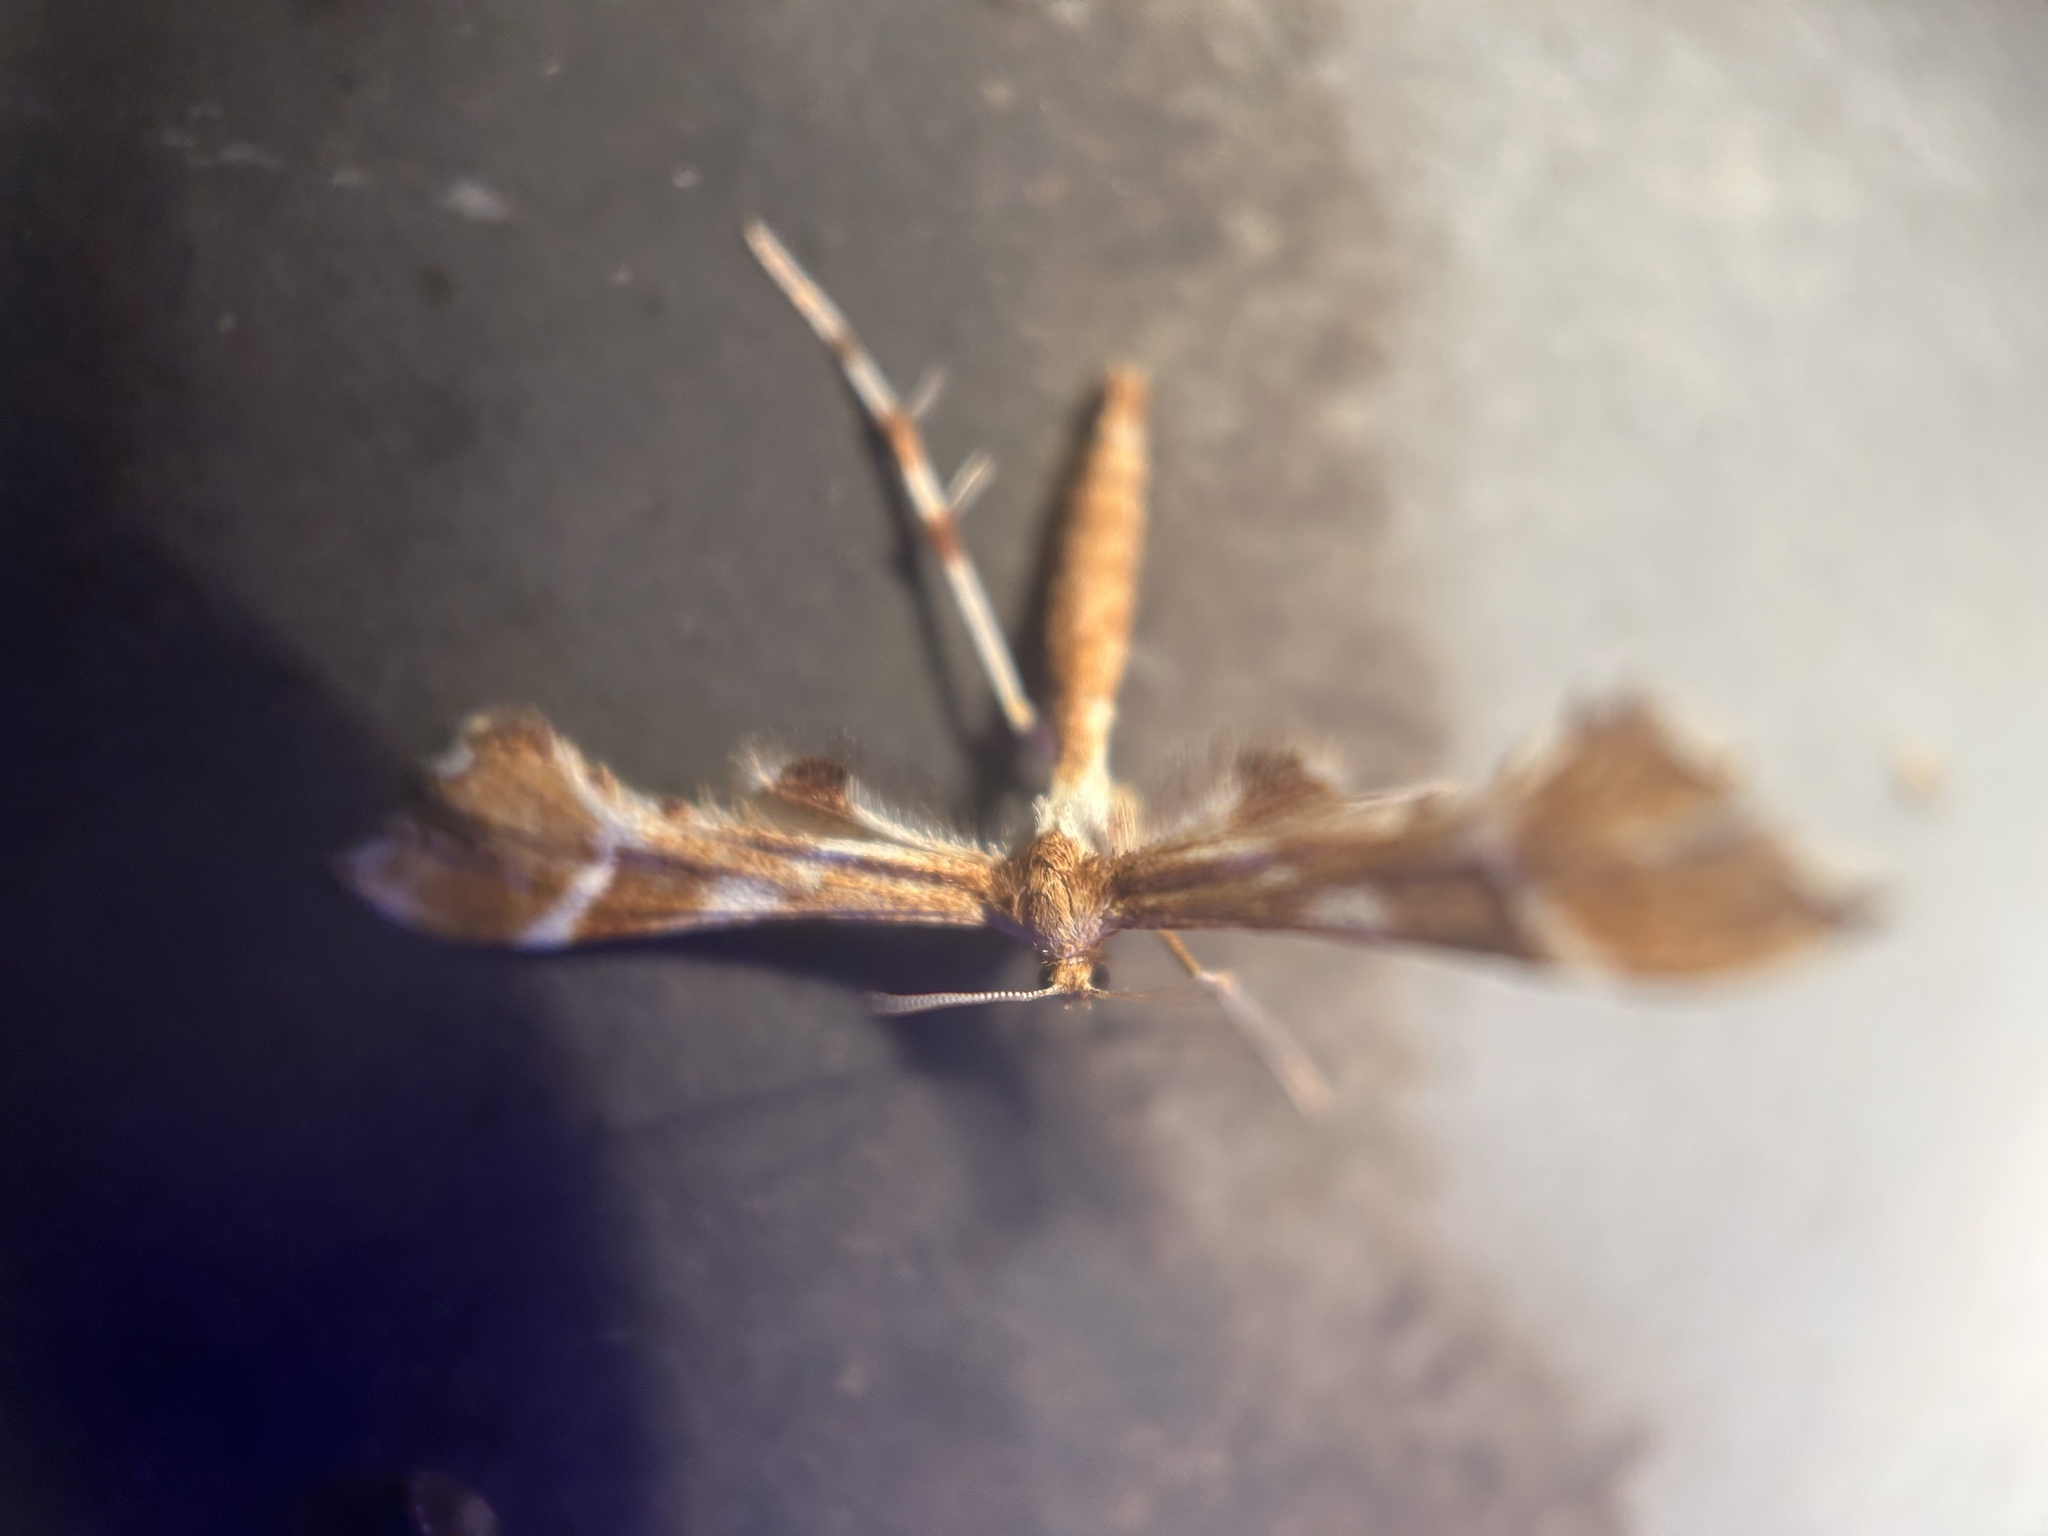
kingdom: Animalia
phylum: Arthropoda
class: Insecta
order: Lepidoptera
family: Pterophoridae
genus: Cnaemidophorus
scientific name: Cnaemidophorus rhododactyla
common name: Rose plume
